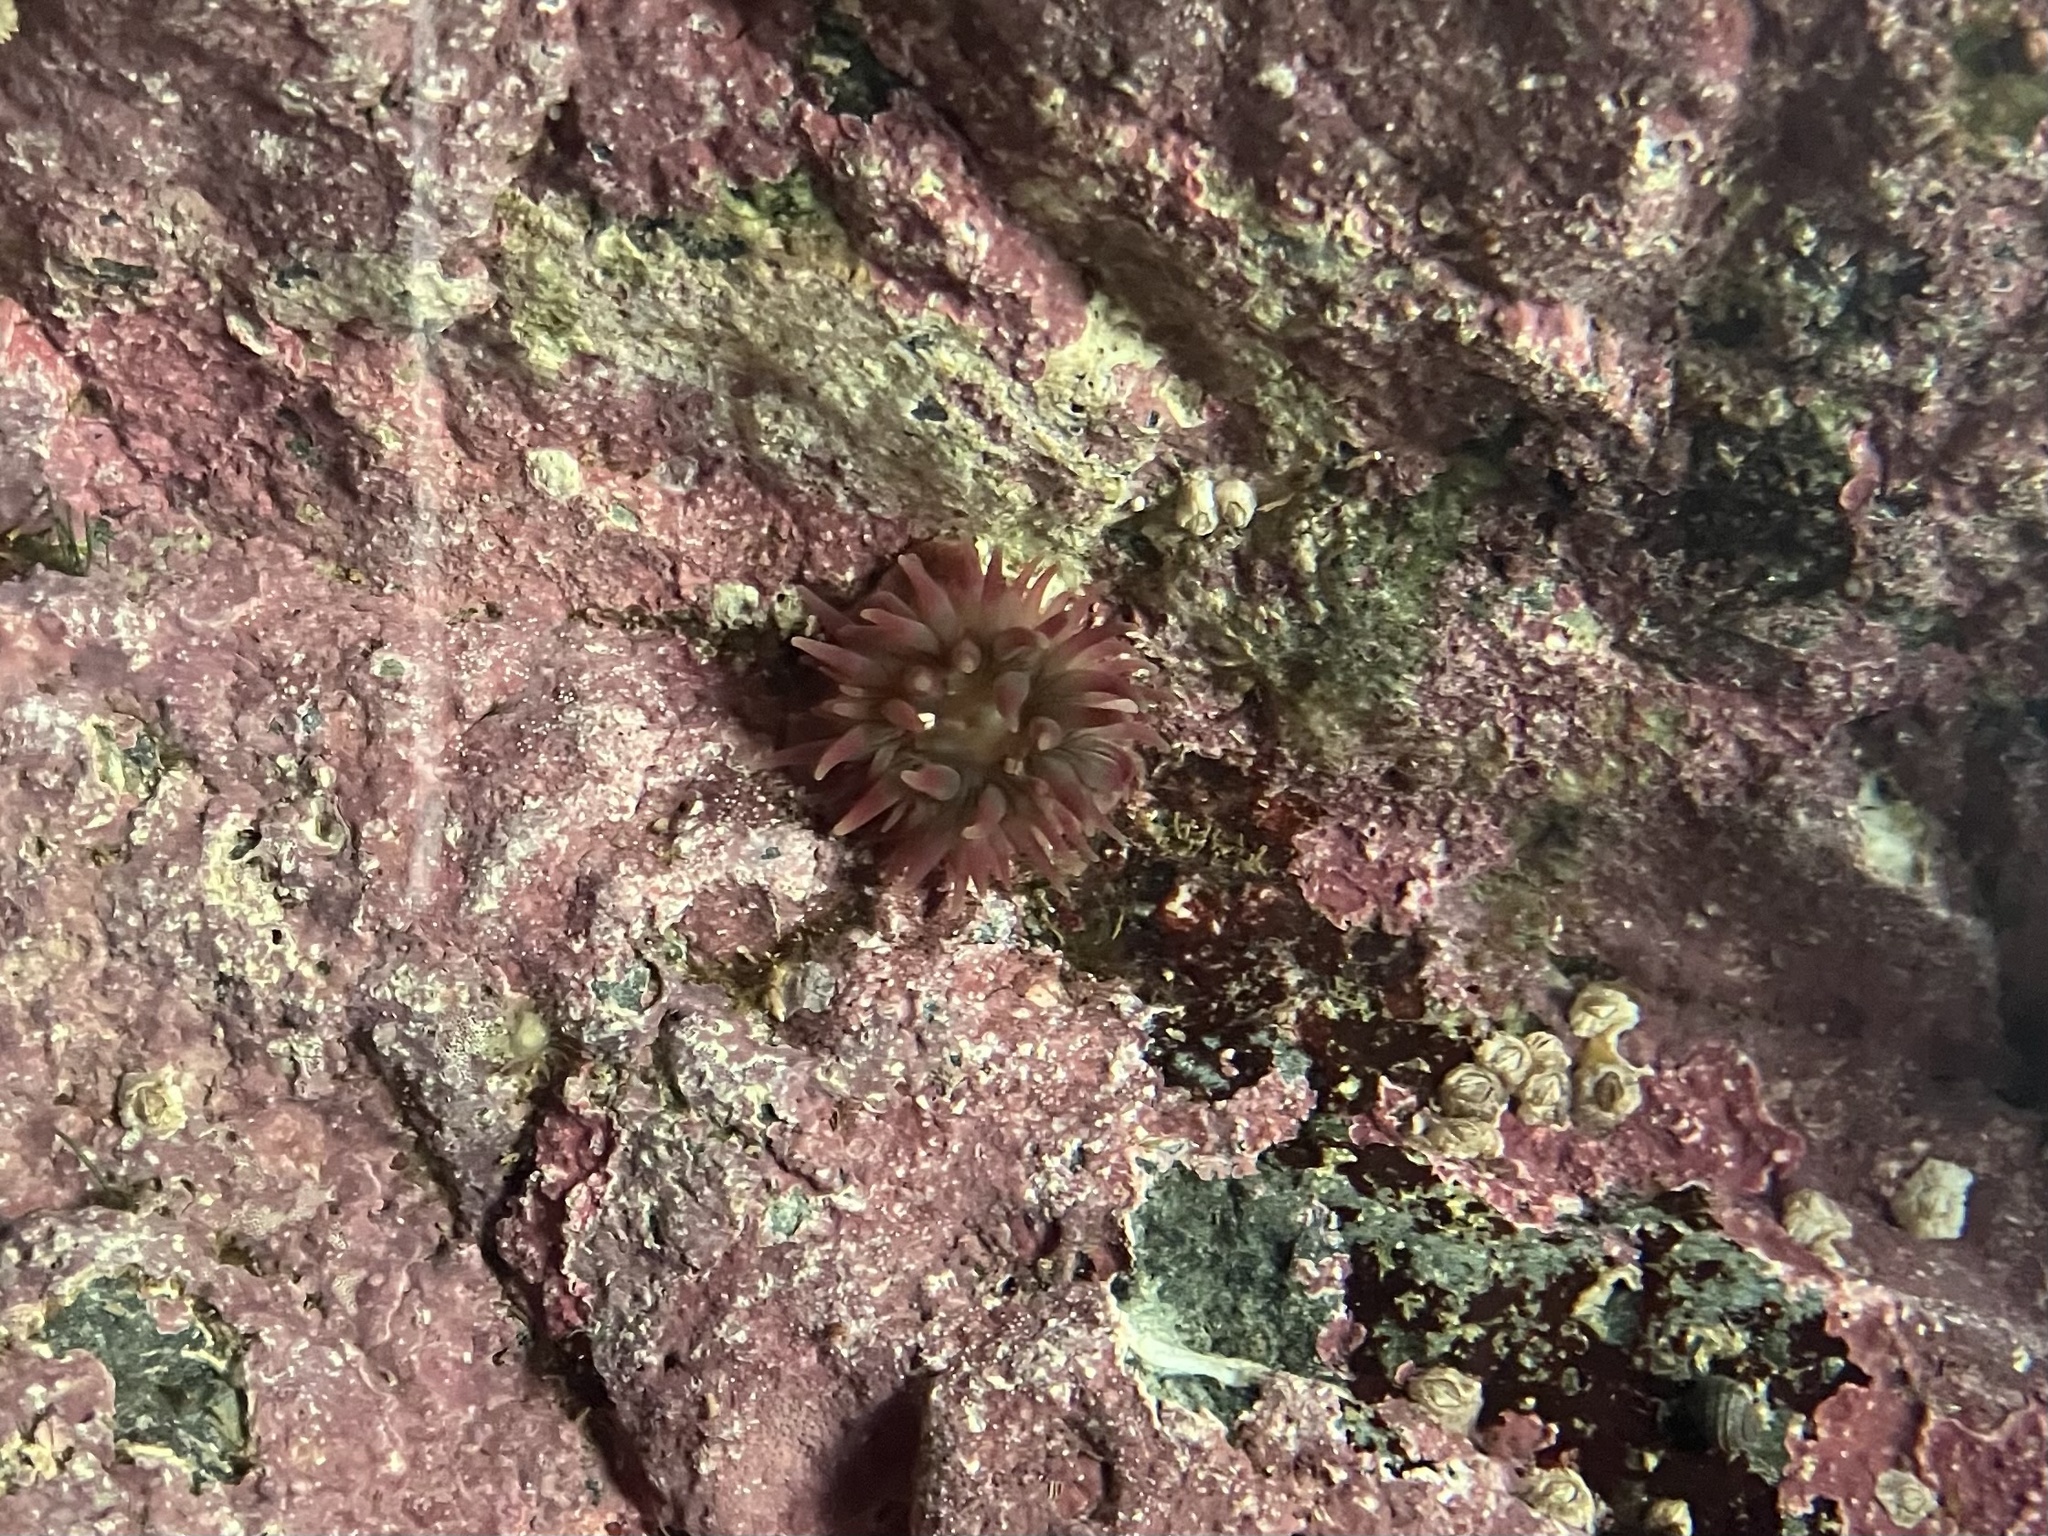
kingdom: Animalia
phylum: Cnidaria
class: Anthozoa
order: Actiniaria
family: Actiniidae
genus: Urticina
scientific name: Urticina crassicornis
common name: Mottled anemone
